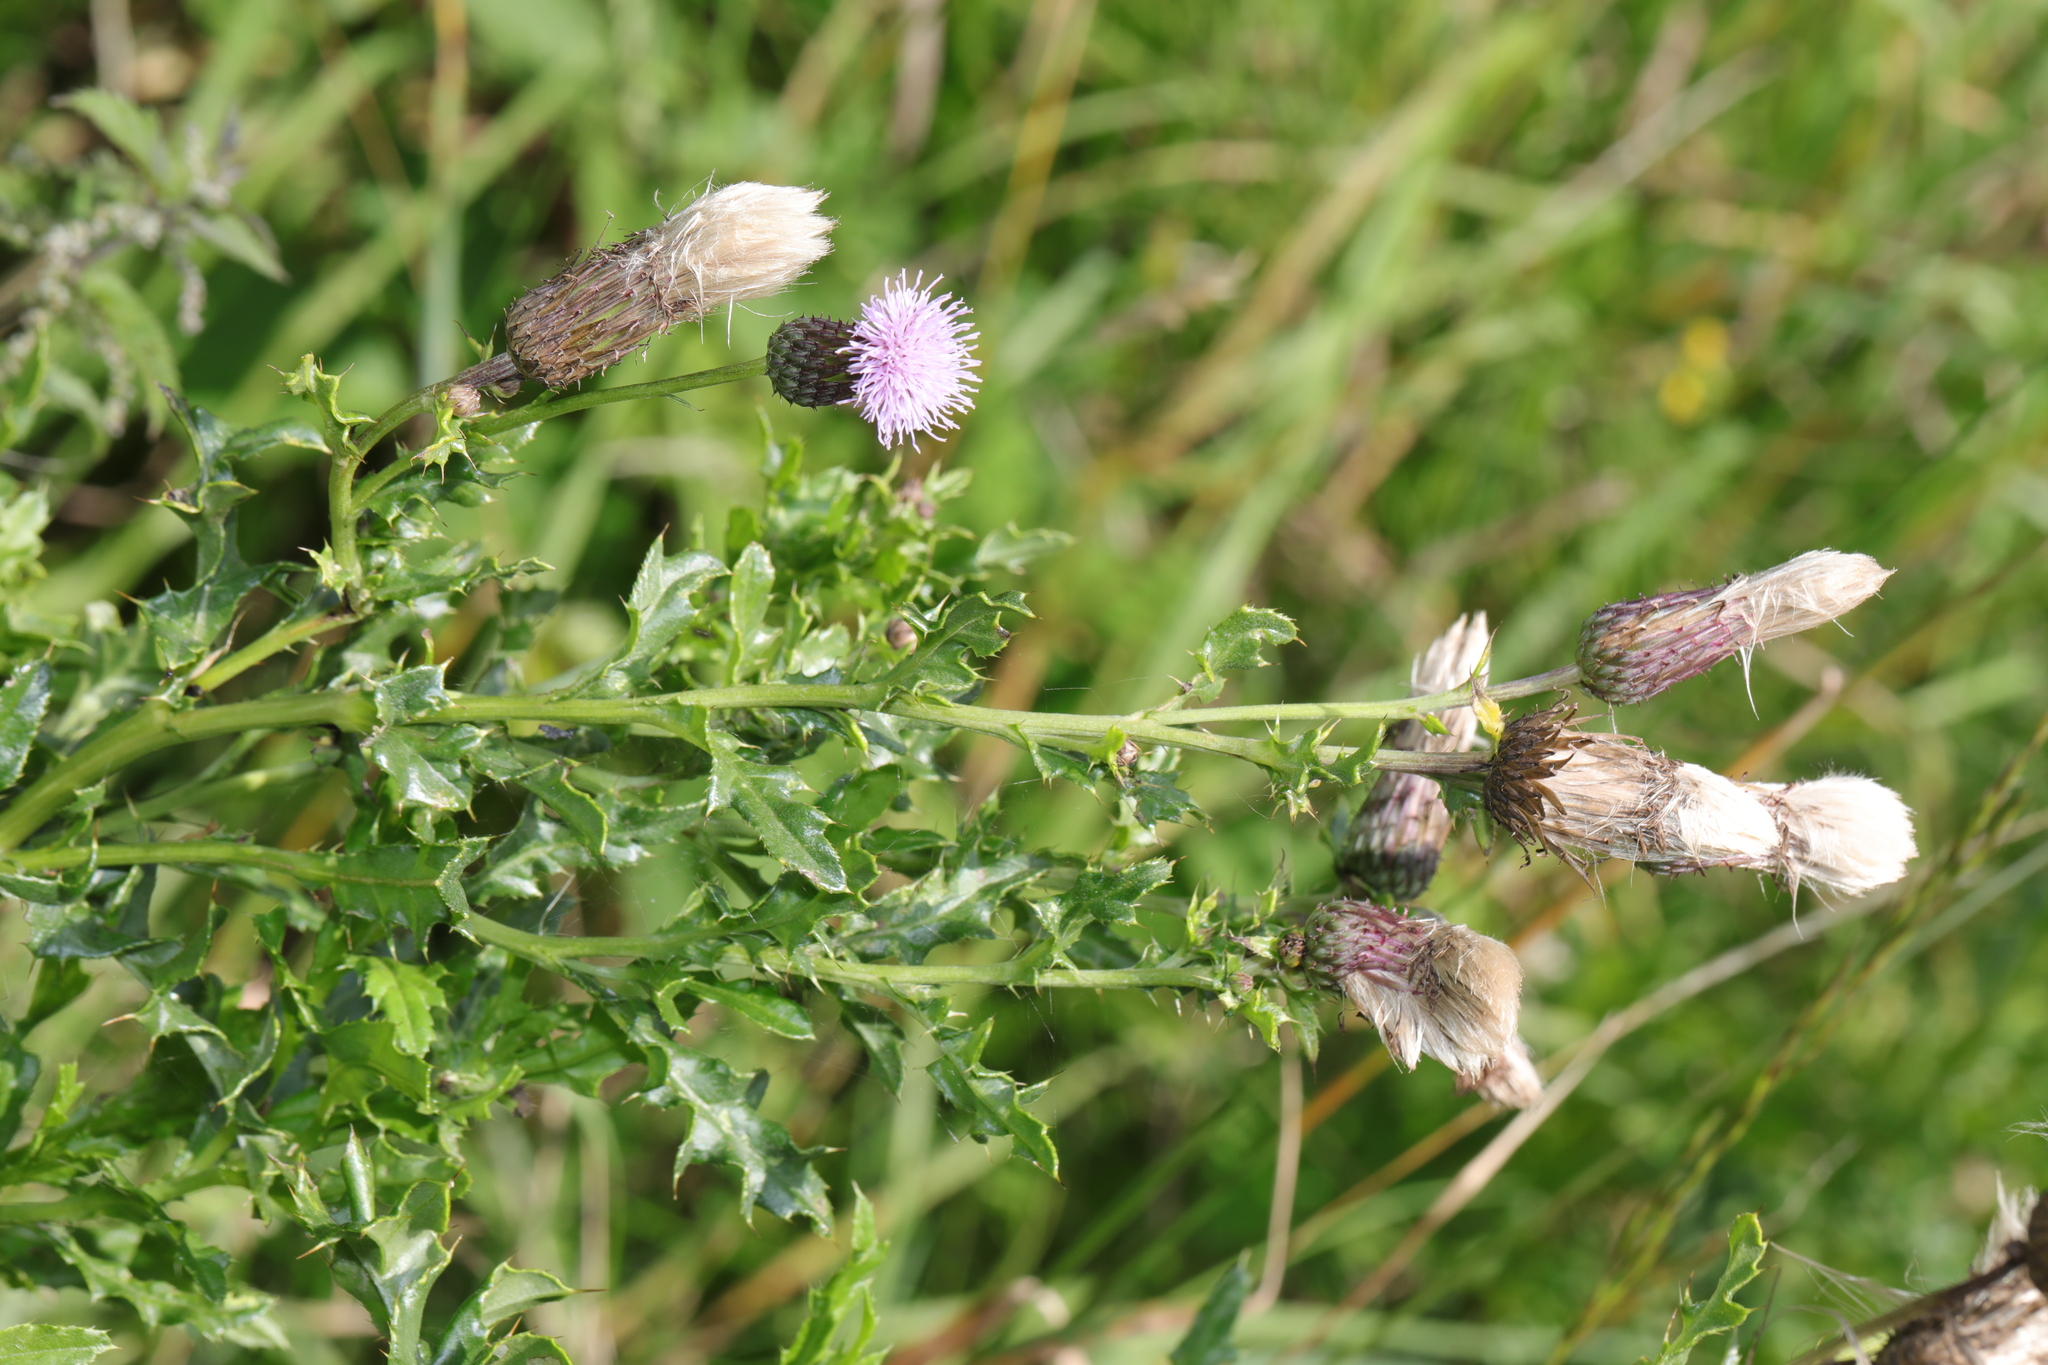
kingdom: Plantae
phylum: Tracheophyta
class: Magnoliopsida
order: Asterales
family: Asteraceae
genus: Cirsium
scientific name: Cirsium arvense
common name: Creeping thistle
